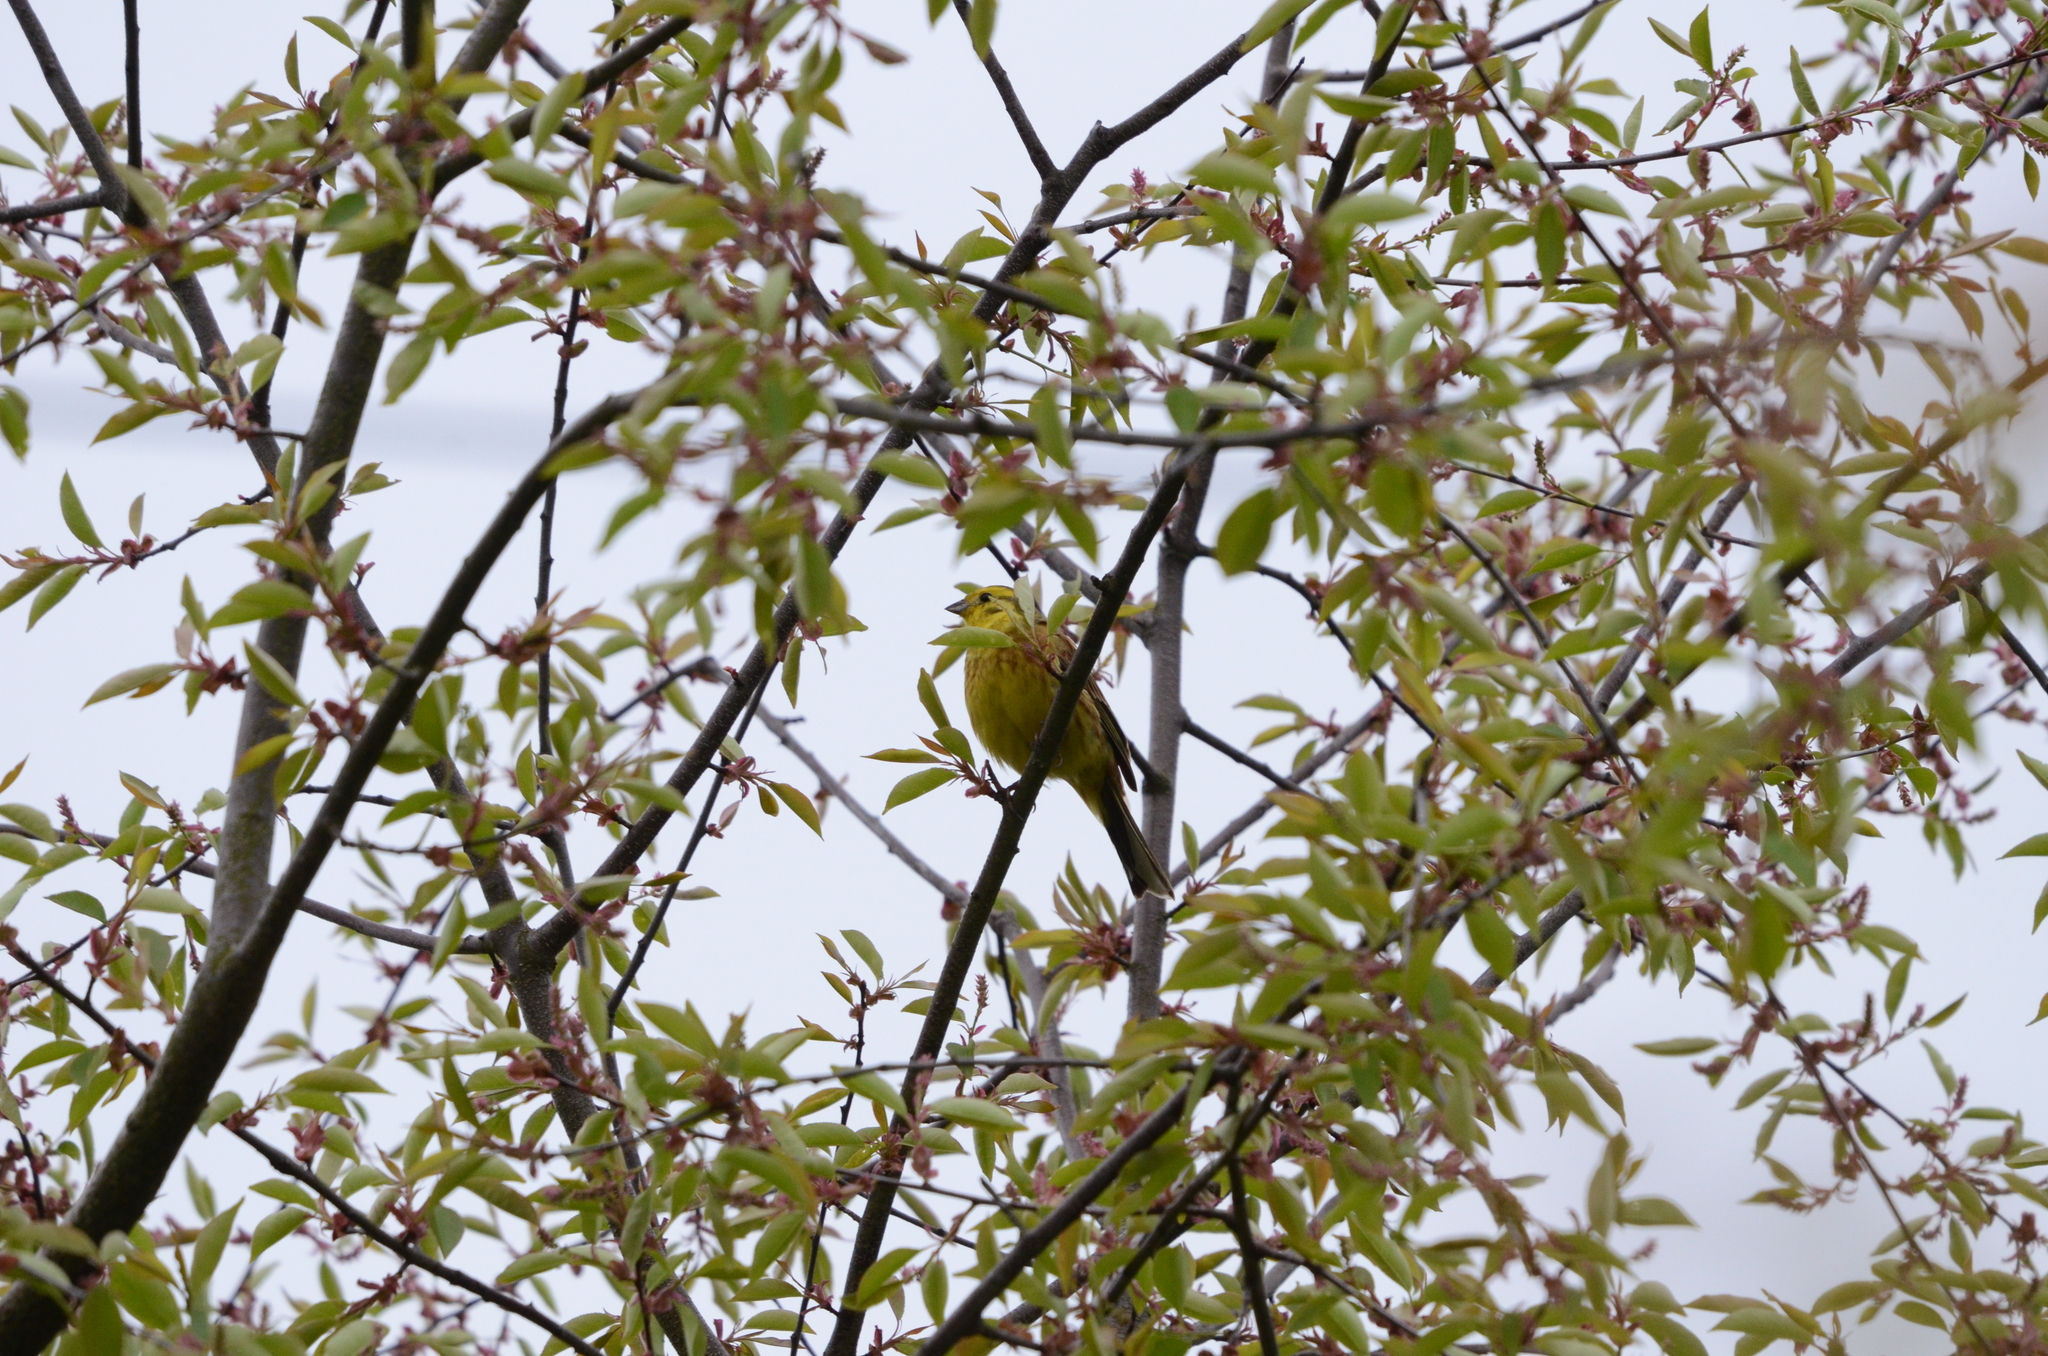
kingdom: Animalia
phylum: Chordata
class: Aves
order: Passeriformes
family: Emberizidae
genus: Emberiza
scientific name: Emberiza citrinella
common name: Yellowhammer
